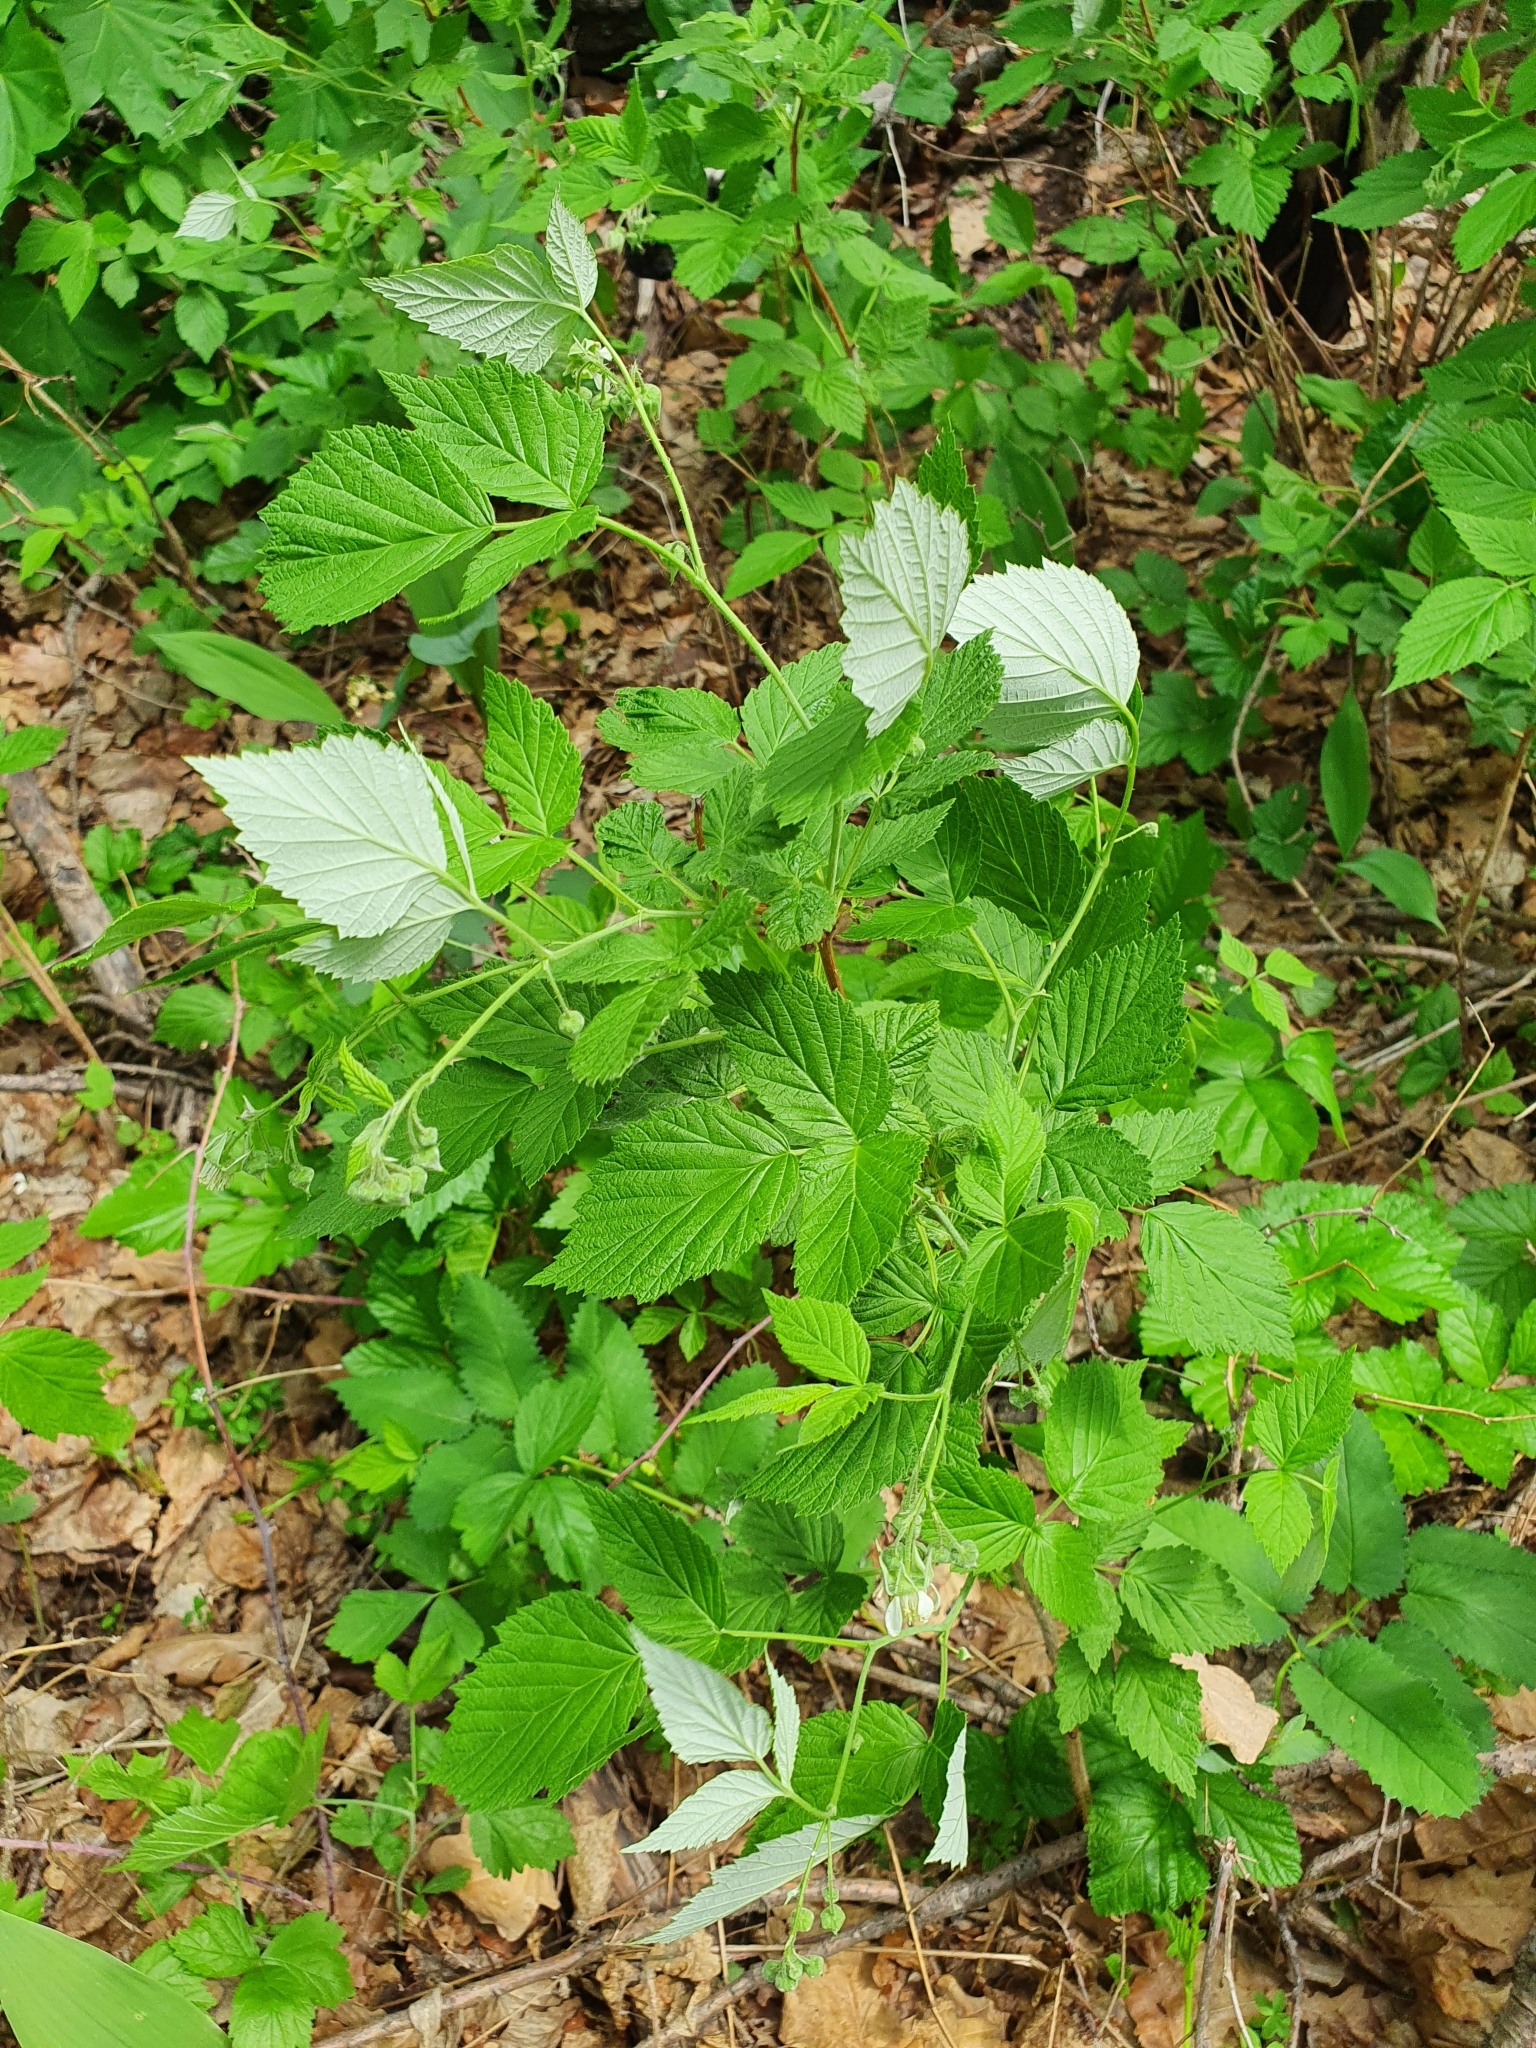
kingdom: Plantae
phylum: Tracheophyta
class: Magnoliopsida
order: Rosales
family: Rosaceae
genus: Rubus
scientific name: Rubus idaeus
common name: Raspberry
